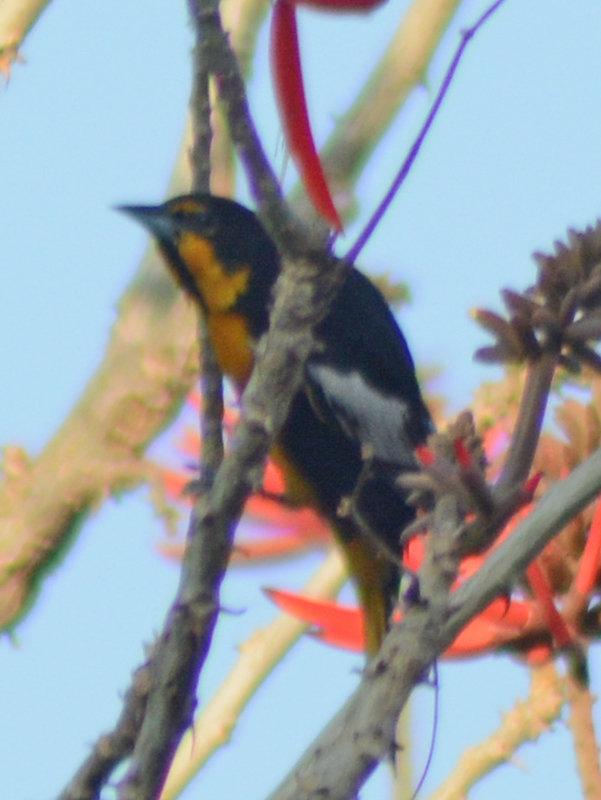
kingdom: Animalia
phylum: Chordata
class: Aves
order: Passeriformes
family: Icteridae
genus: Icterus
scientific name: Icterus abeillei
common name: Black-backed oriole
